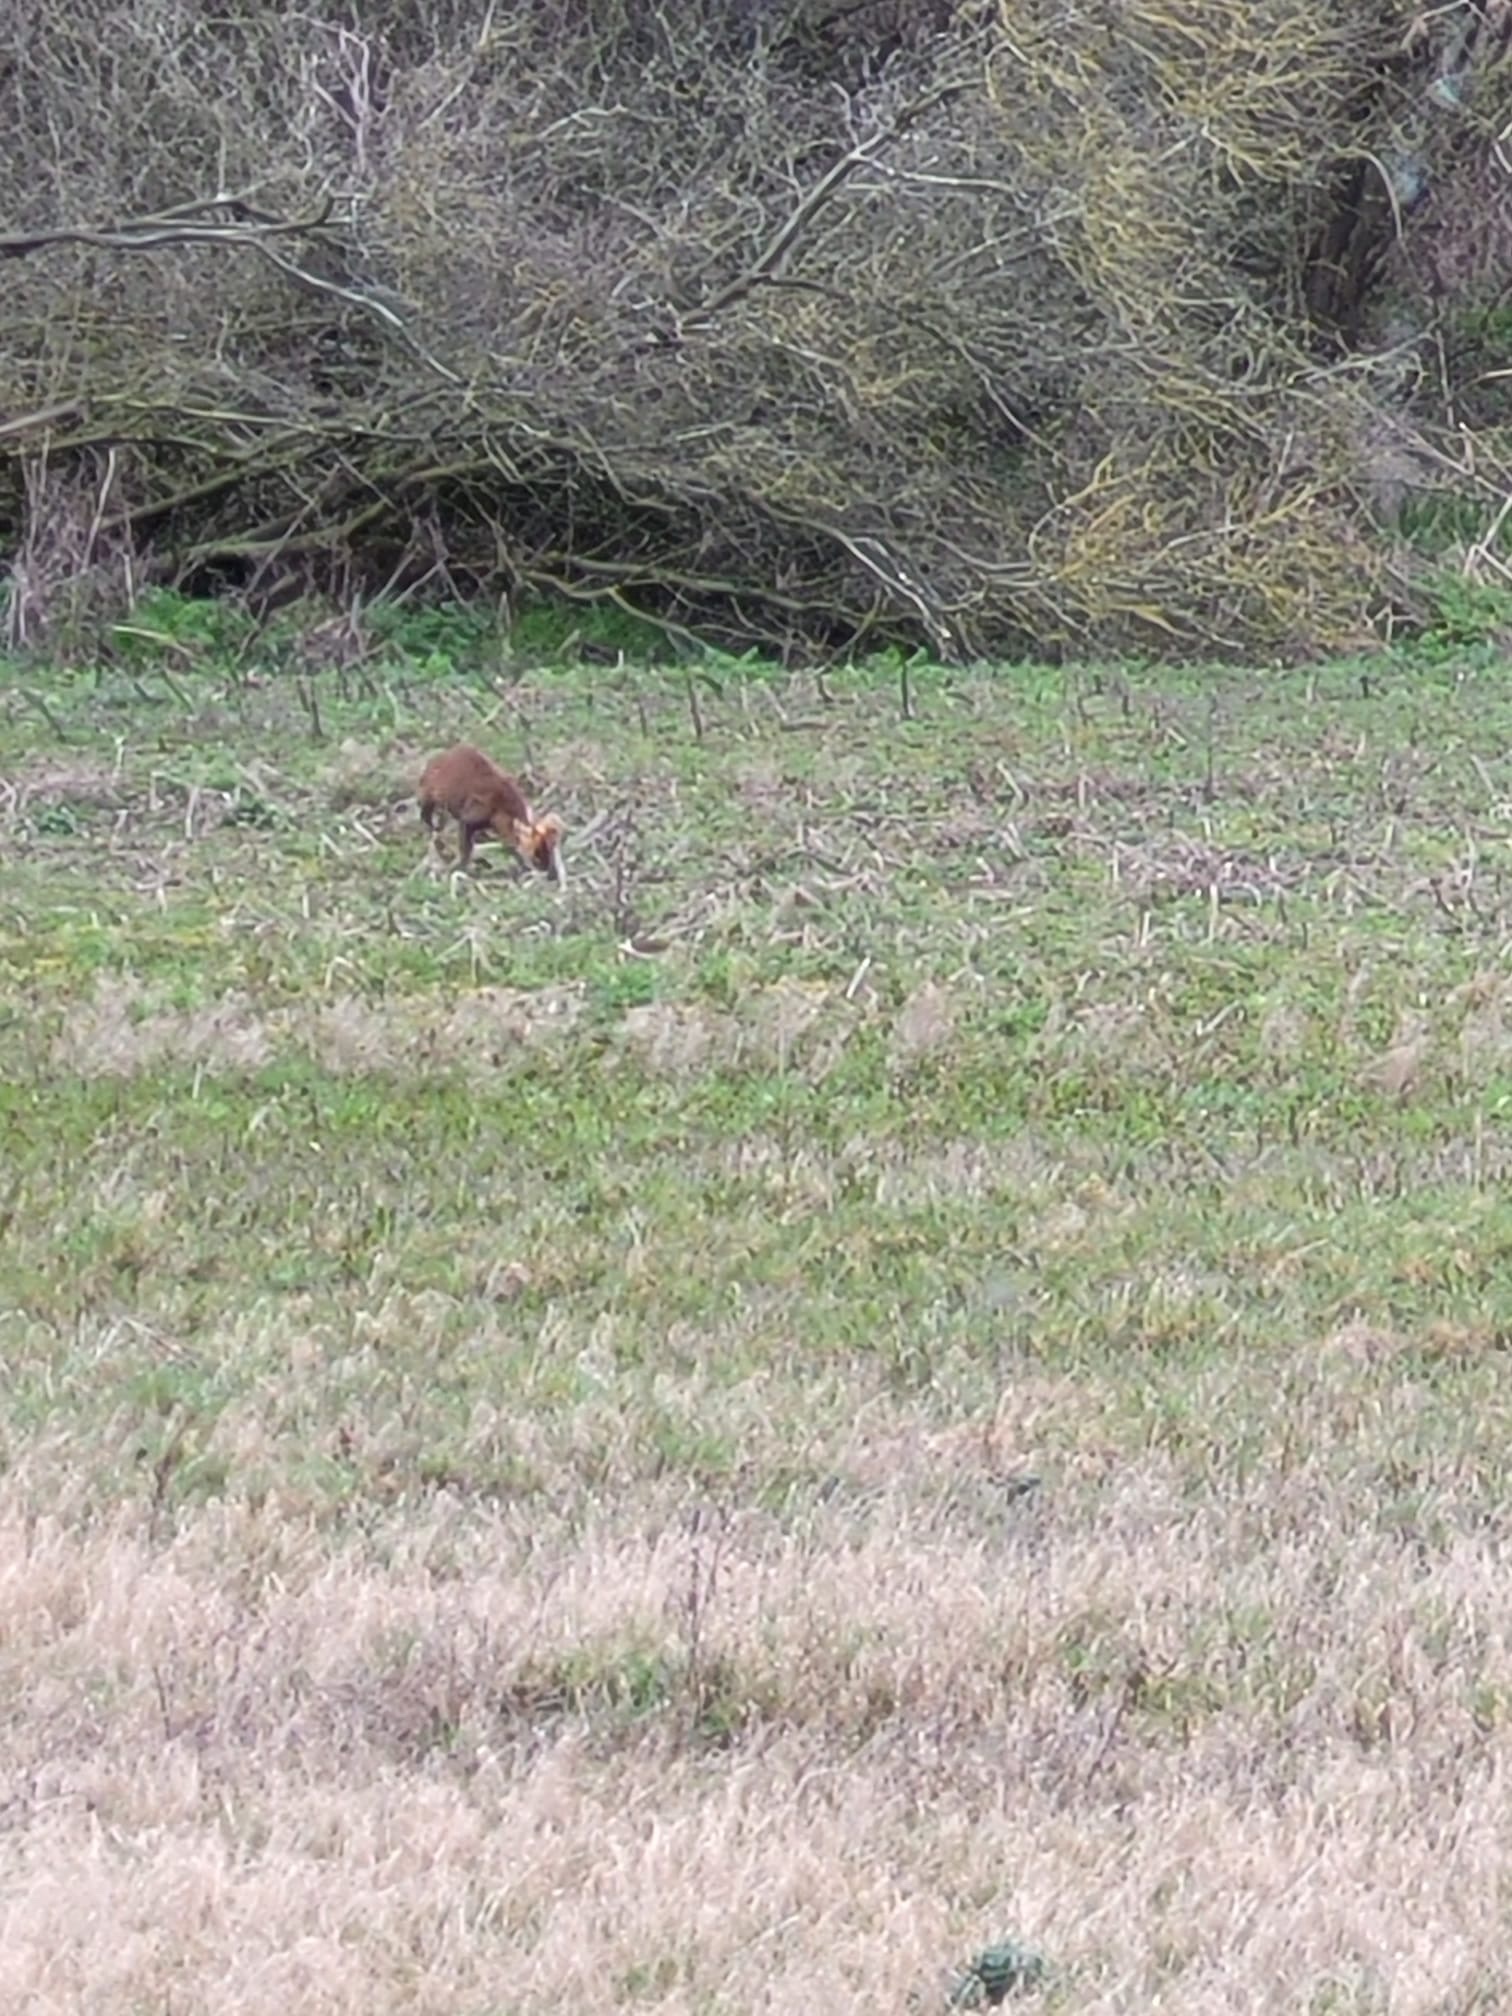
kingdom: Animalia
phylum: Chordata
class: Mammalia
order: Artiodactyla
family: Cervidae
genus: Muntiacus
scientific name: Muntiacus reevesi
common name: Reeves' muntjac
